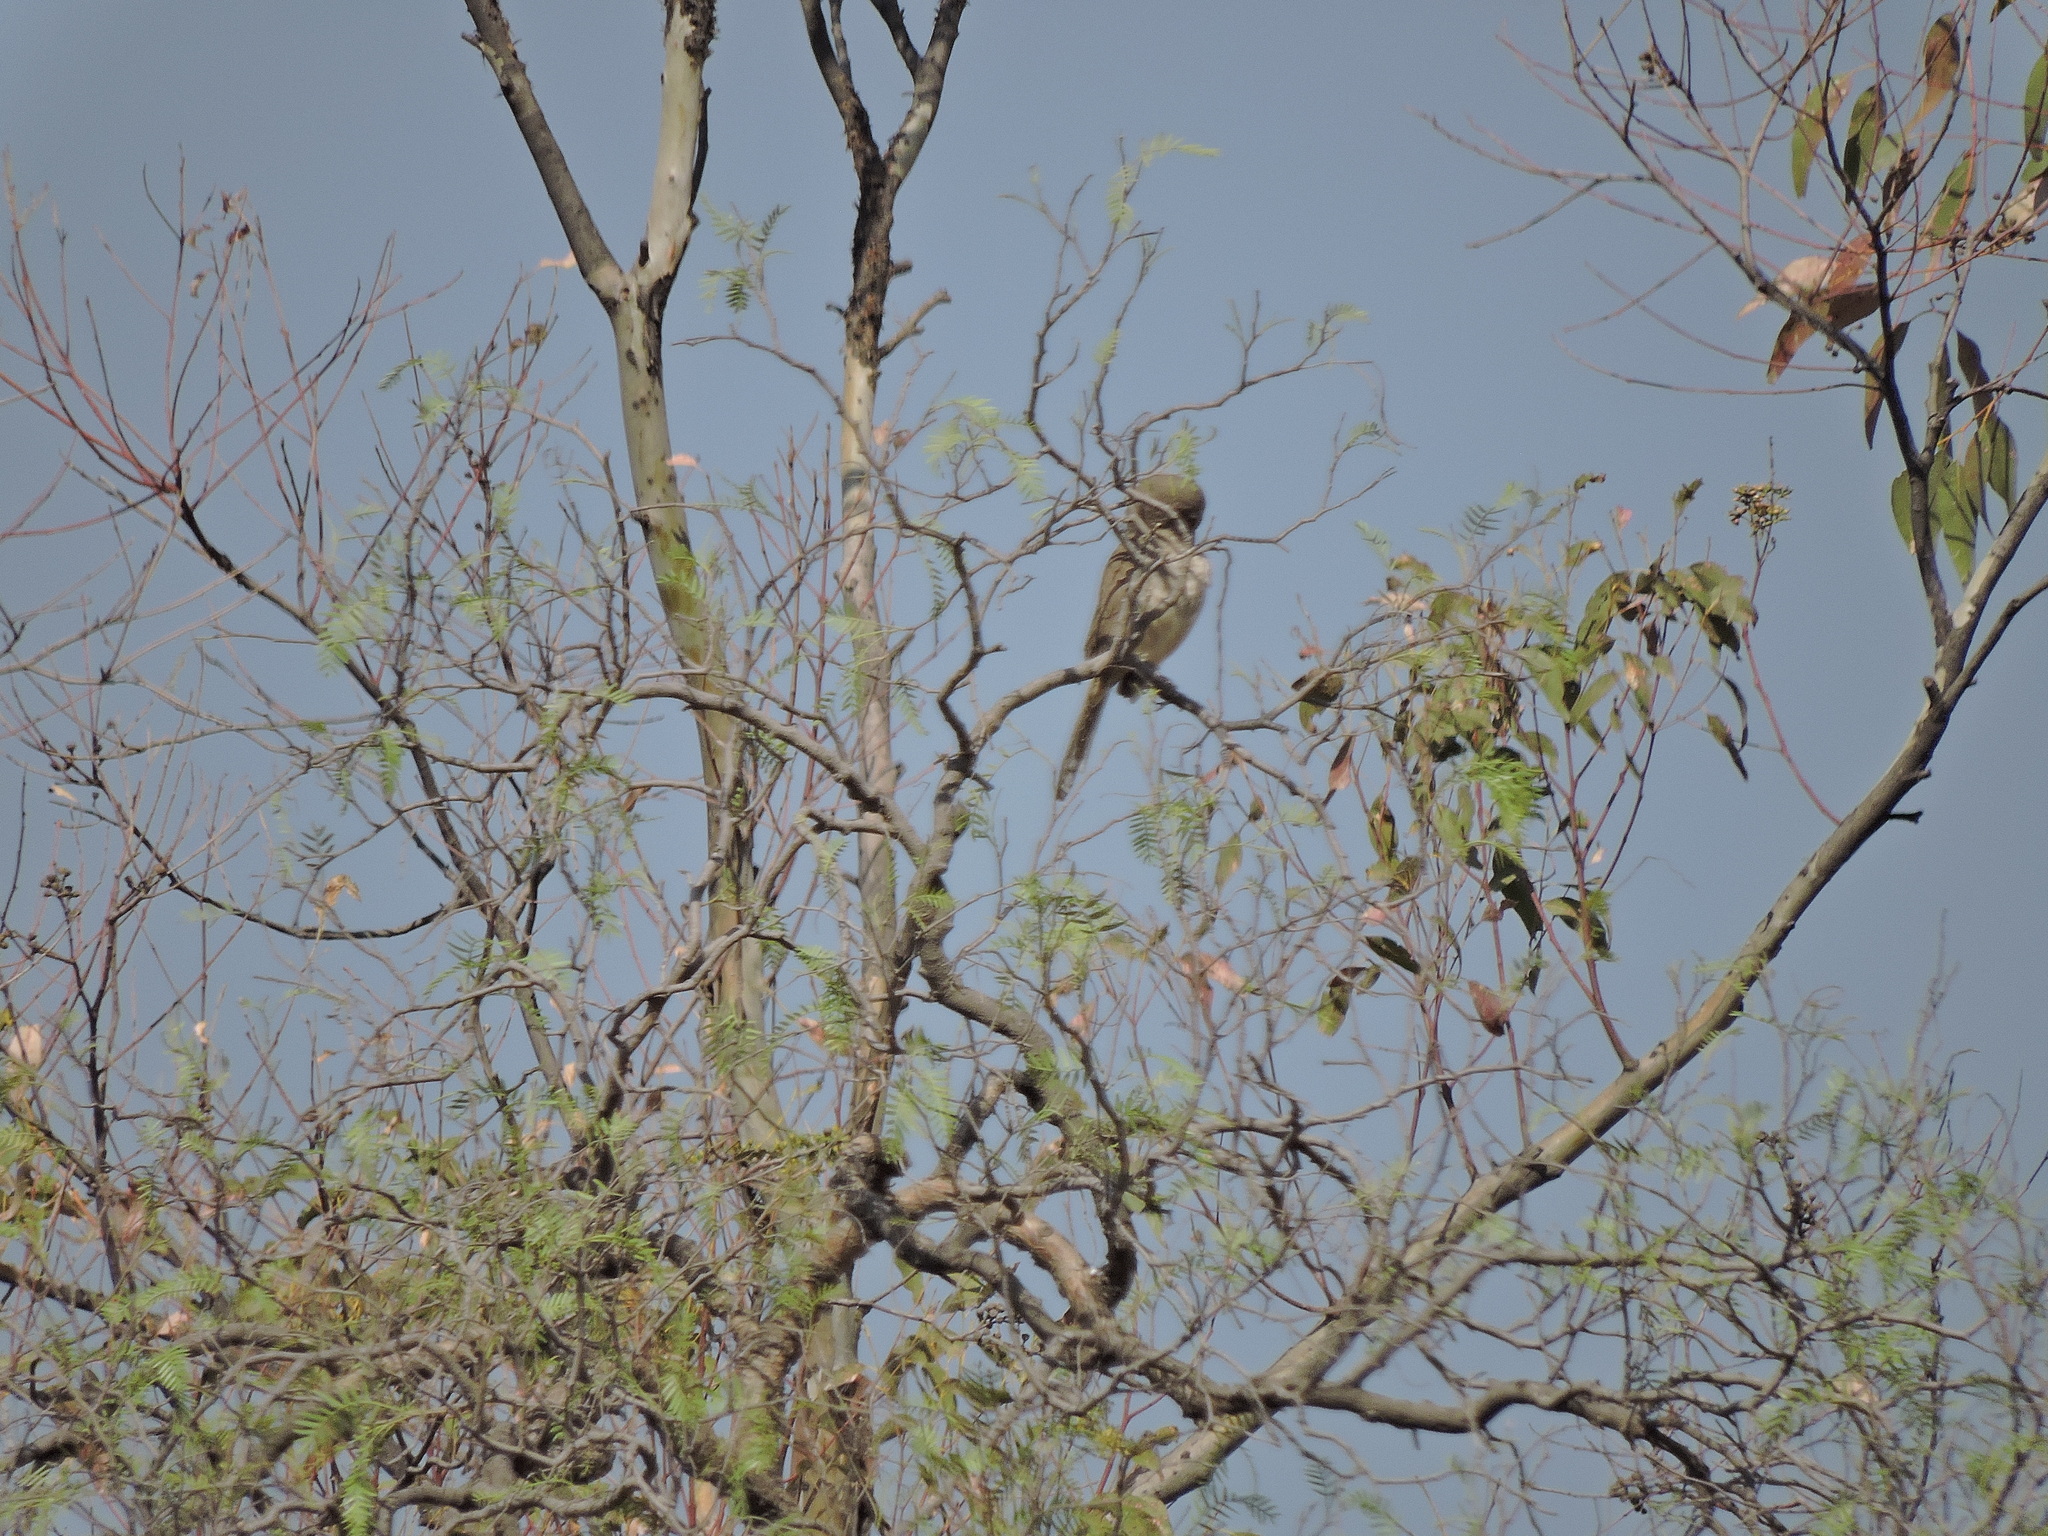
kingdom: Animalia
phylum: Chordata
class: Aves
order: Passeriformes
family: Mimidae
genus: Toxostoma
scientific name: Toxostoma curvirostre
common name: Curve-billed thrasher
